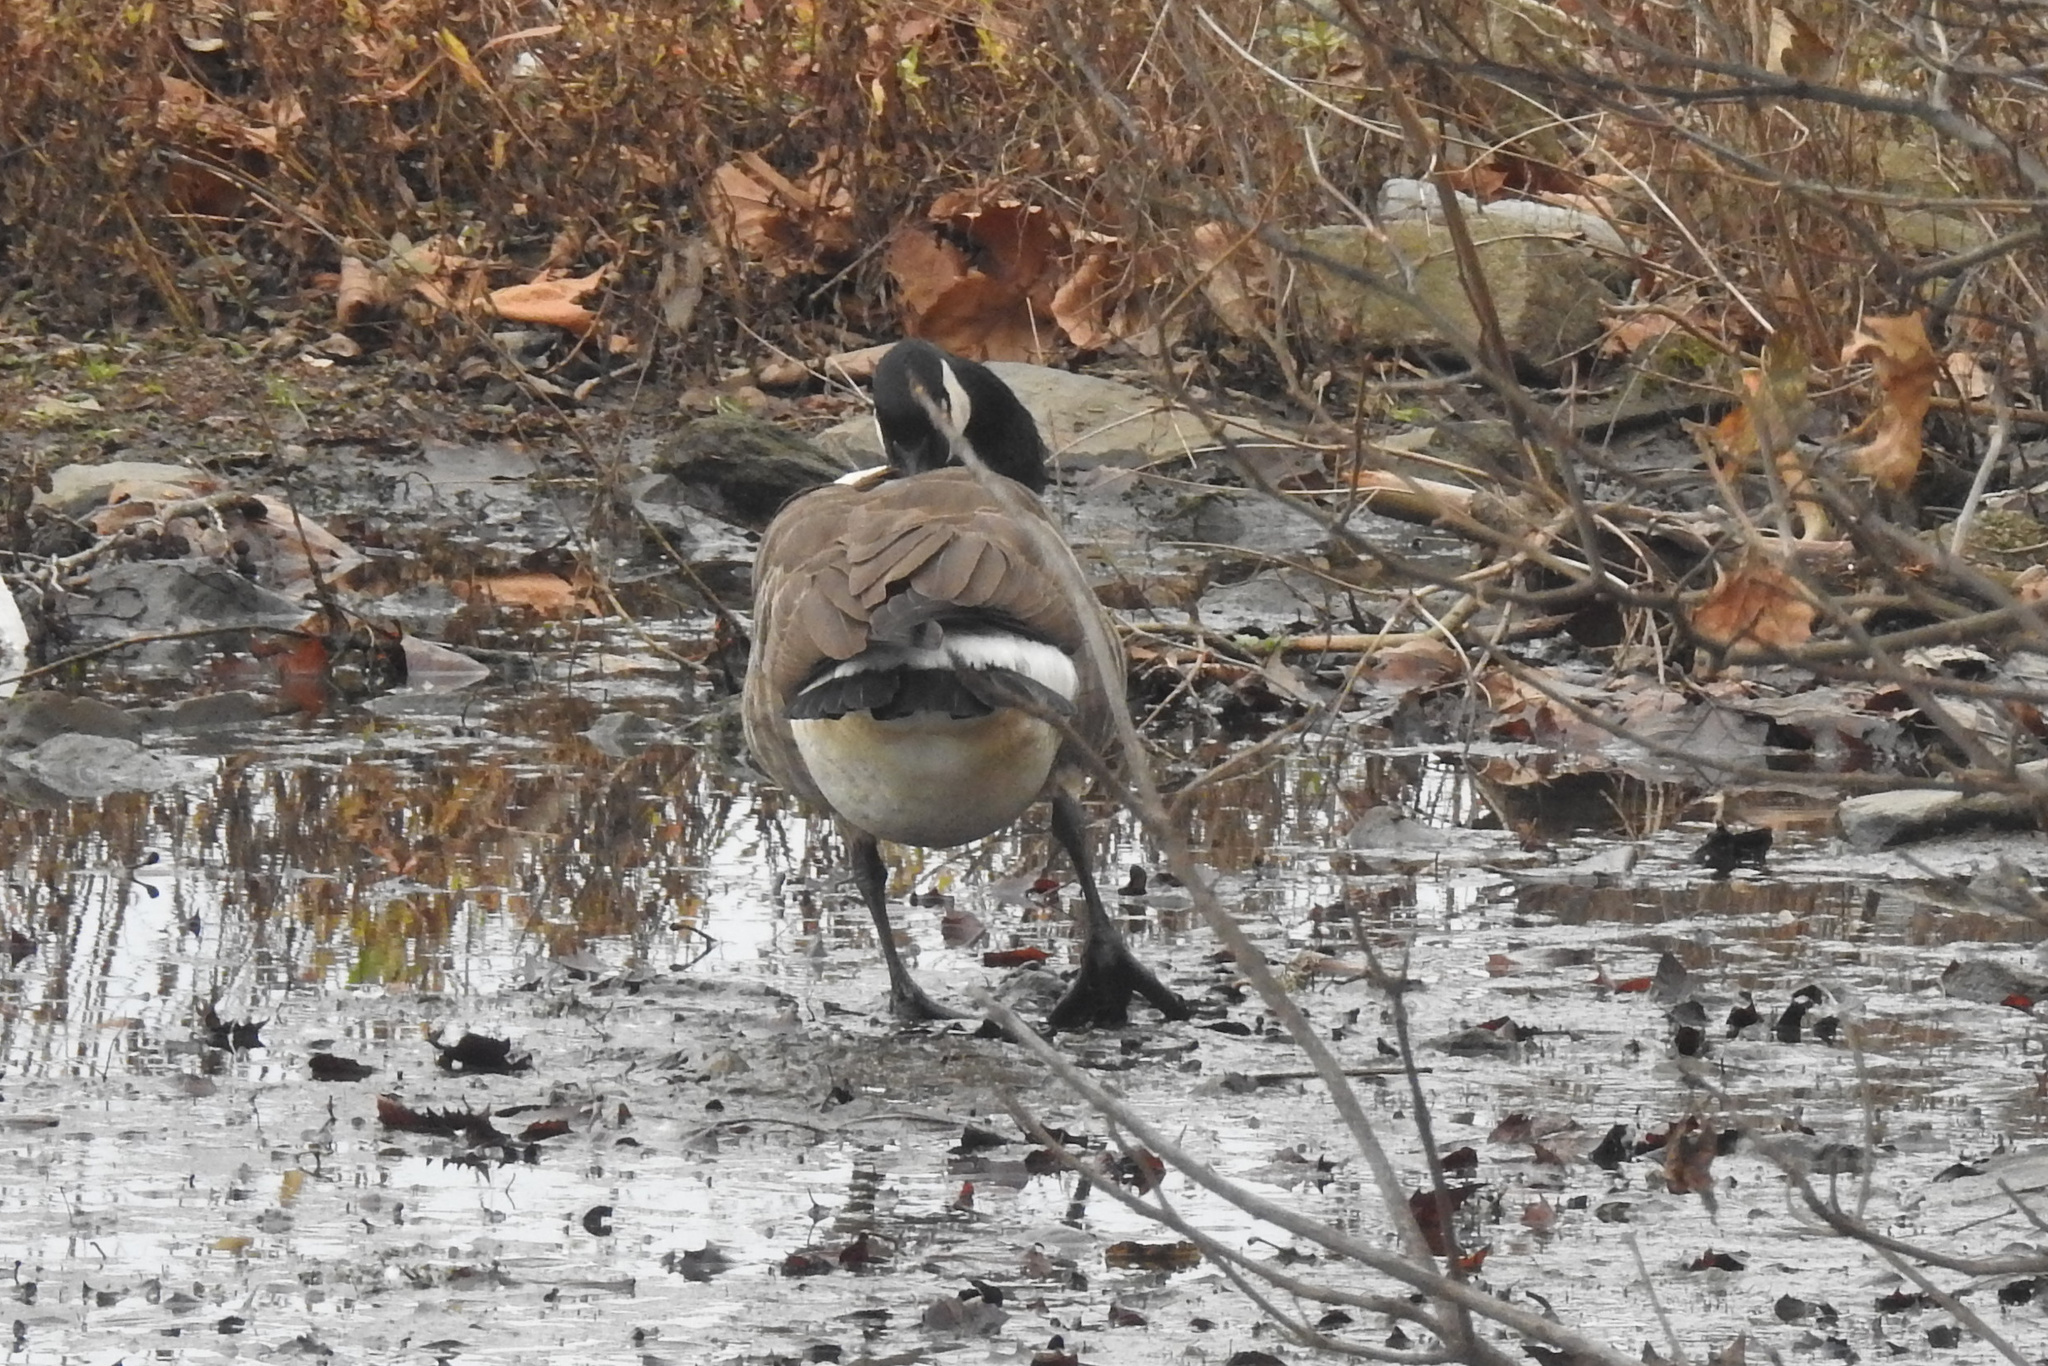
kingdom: Animalia
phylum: Chordata
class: Aves
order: Anseriformes
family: Anatidae
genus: Branta
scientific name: Branta canadensis
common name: Canada goose
